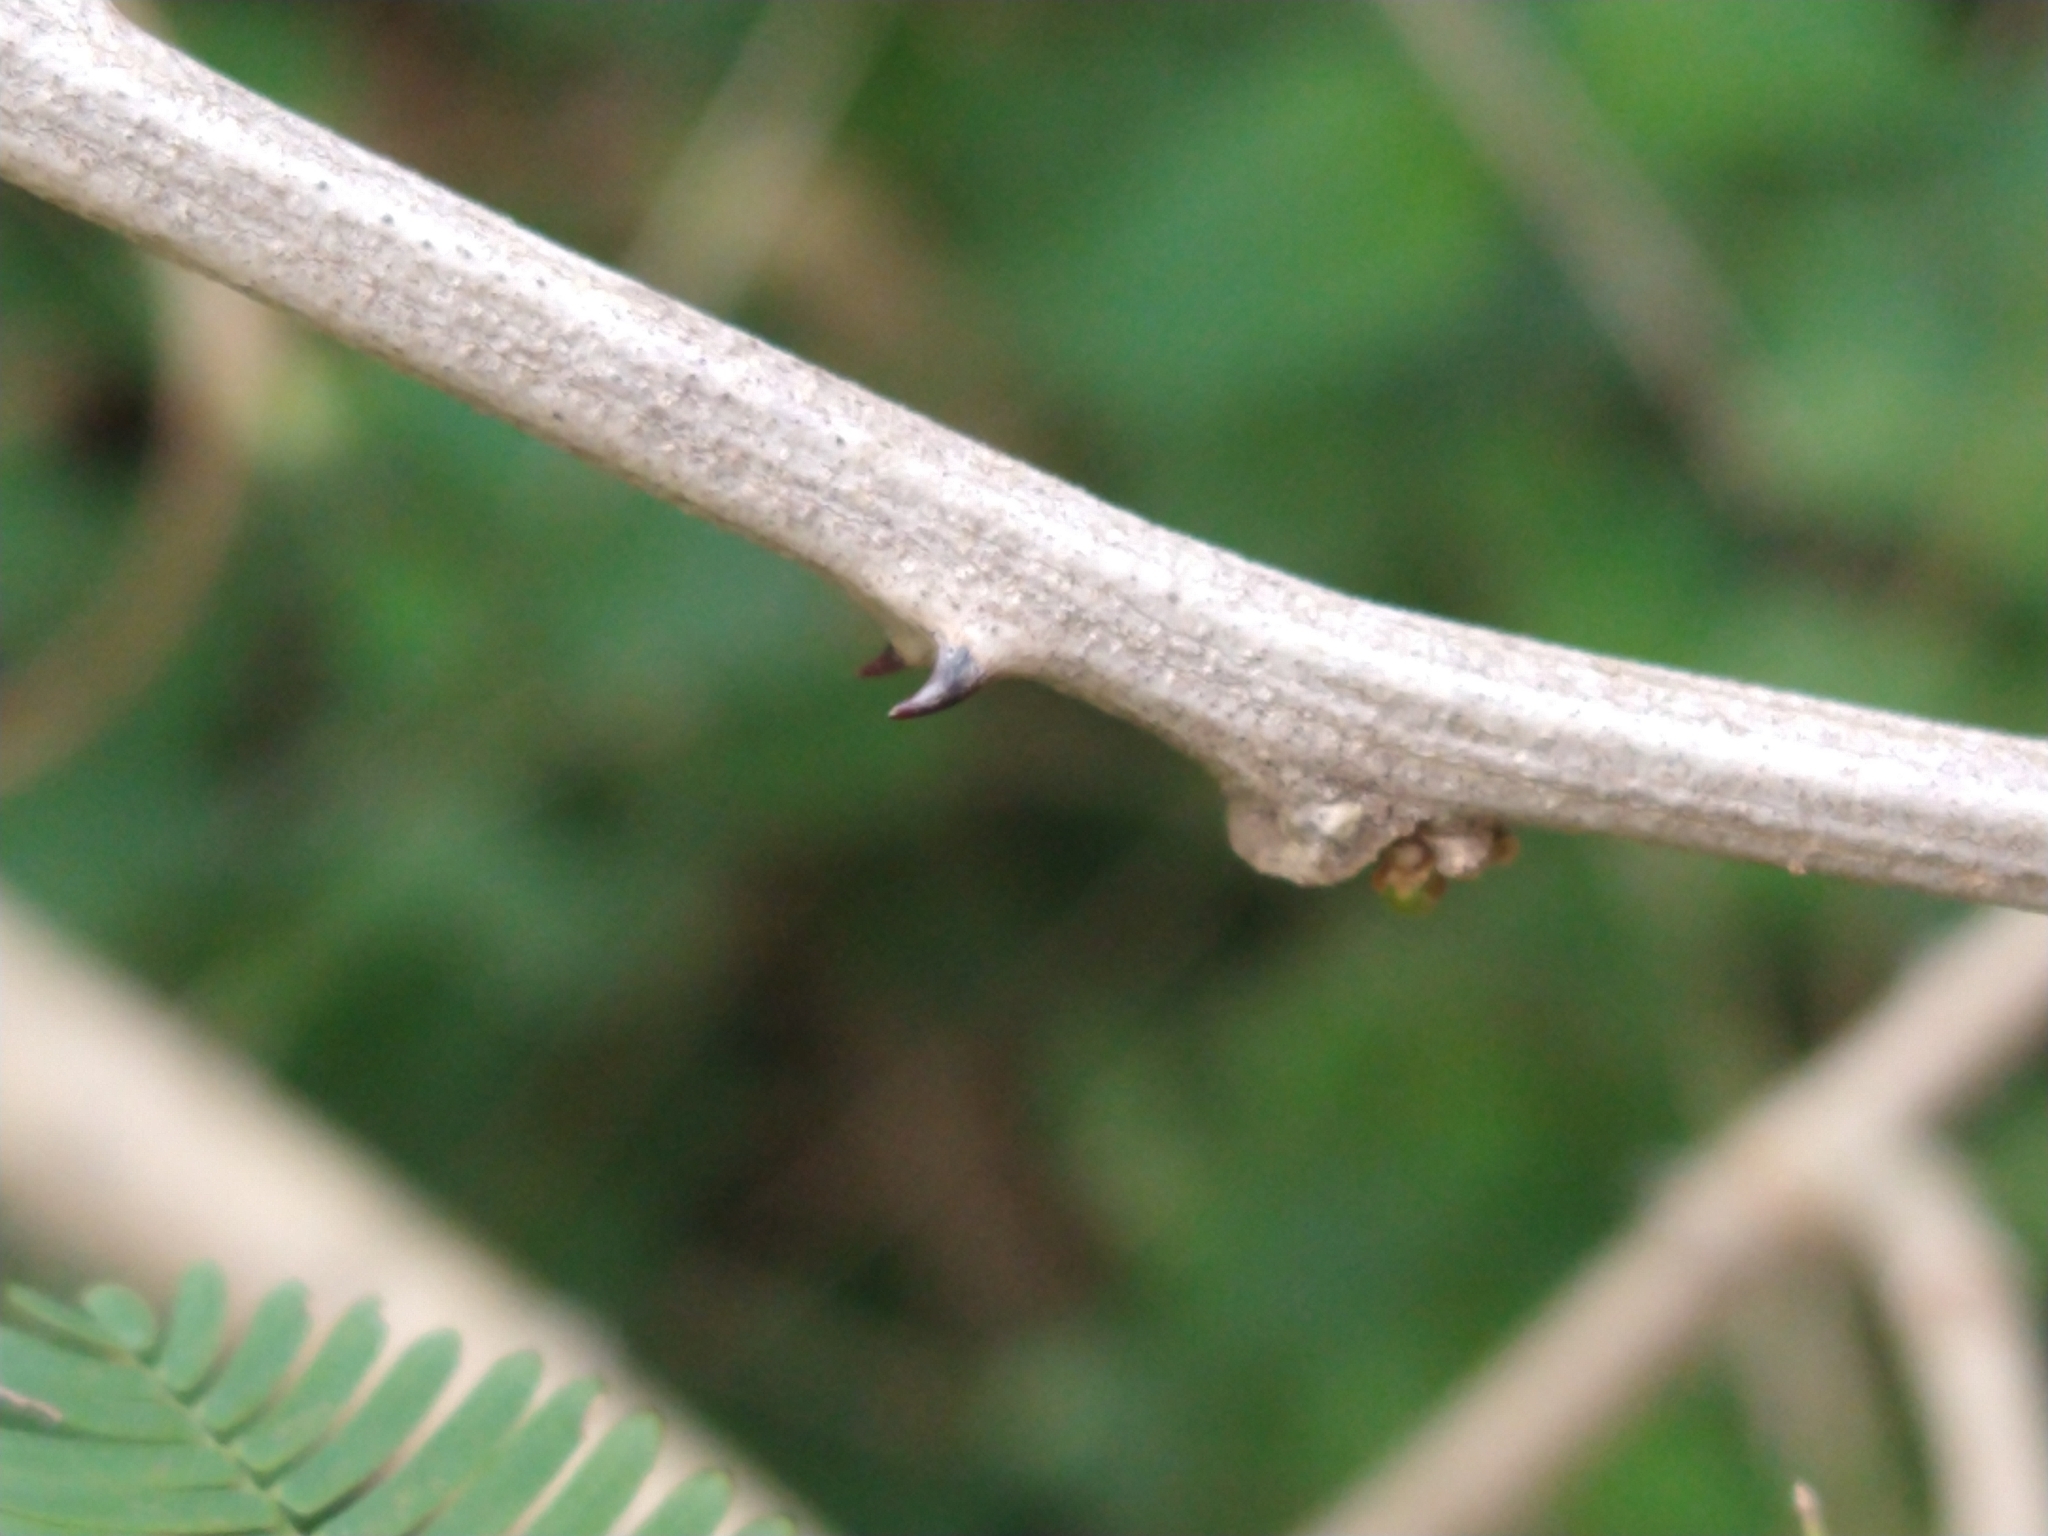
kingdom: Plantae
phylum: Tracheophyta
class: Magnoliopsida
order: Fabales
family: Fabaceae
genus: Senegalia
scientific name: Senegalia bonariensis
